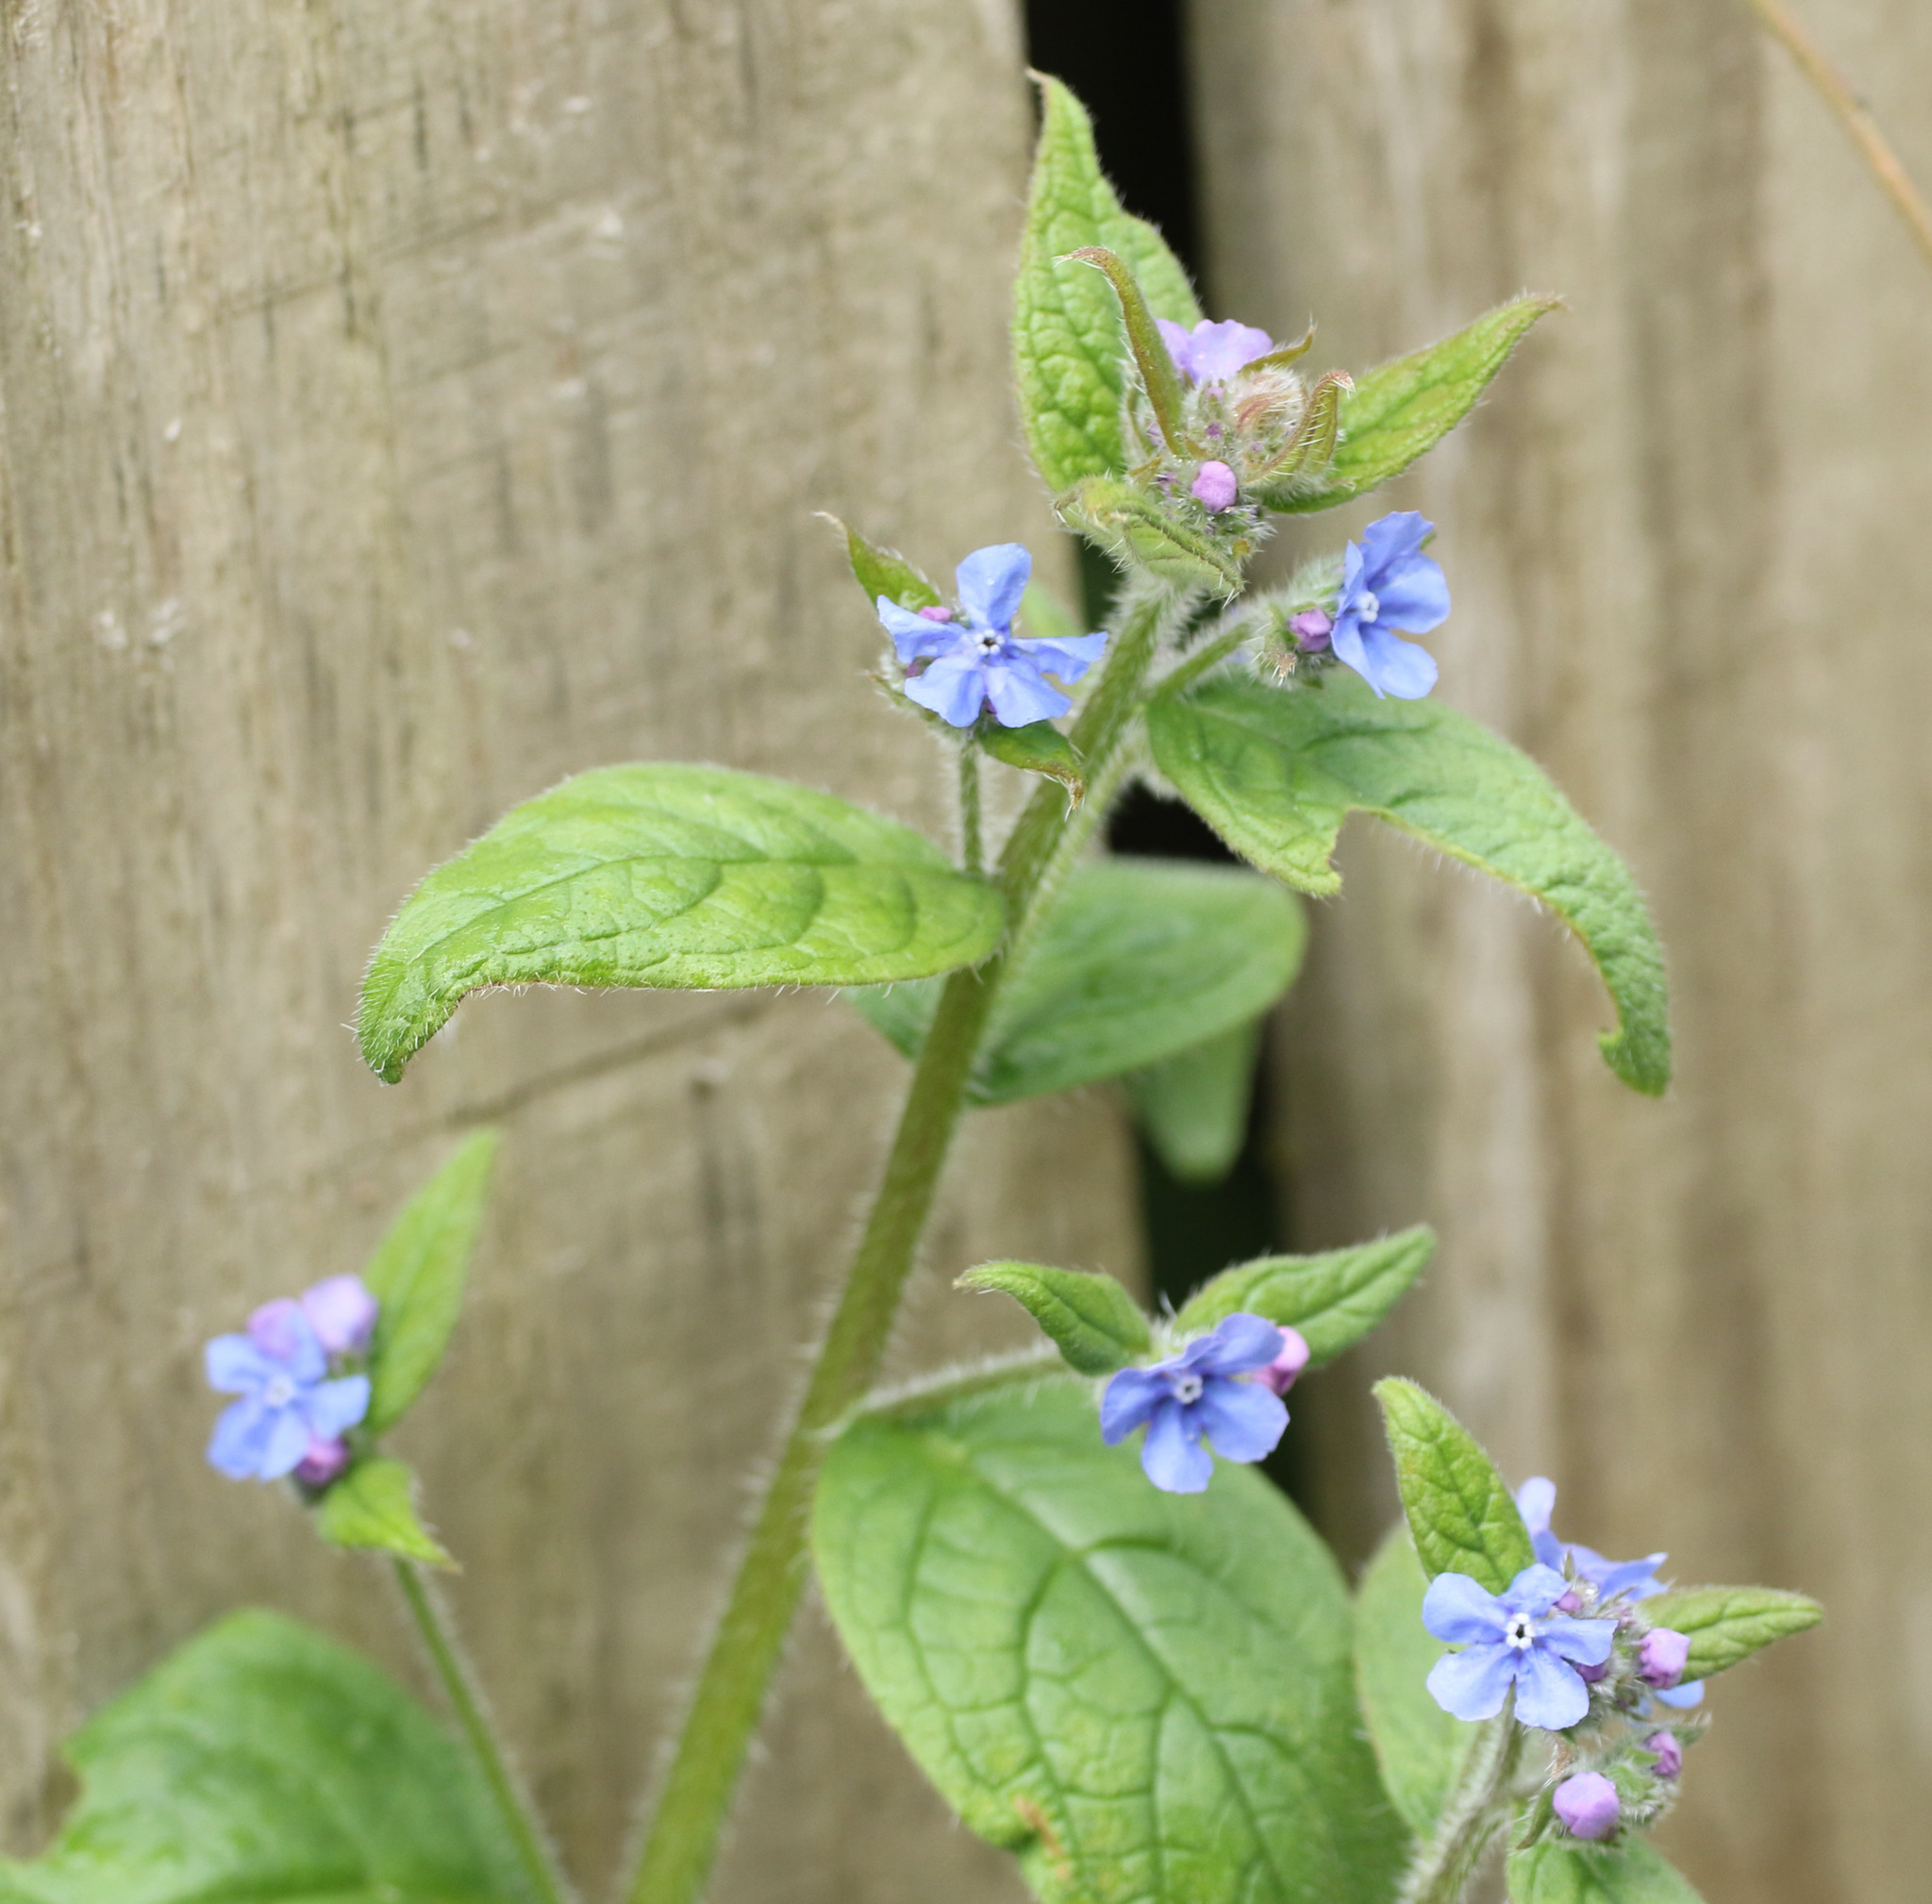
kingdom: Plantae
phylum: Tracheophyta
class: Magnoliopsida
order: Boraginales
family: Boraginaceae
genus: Pentaglottis
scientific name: Pentaglottis sempervirens
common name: Green alkanet
